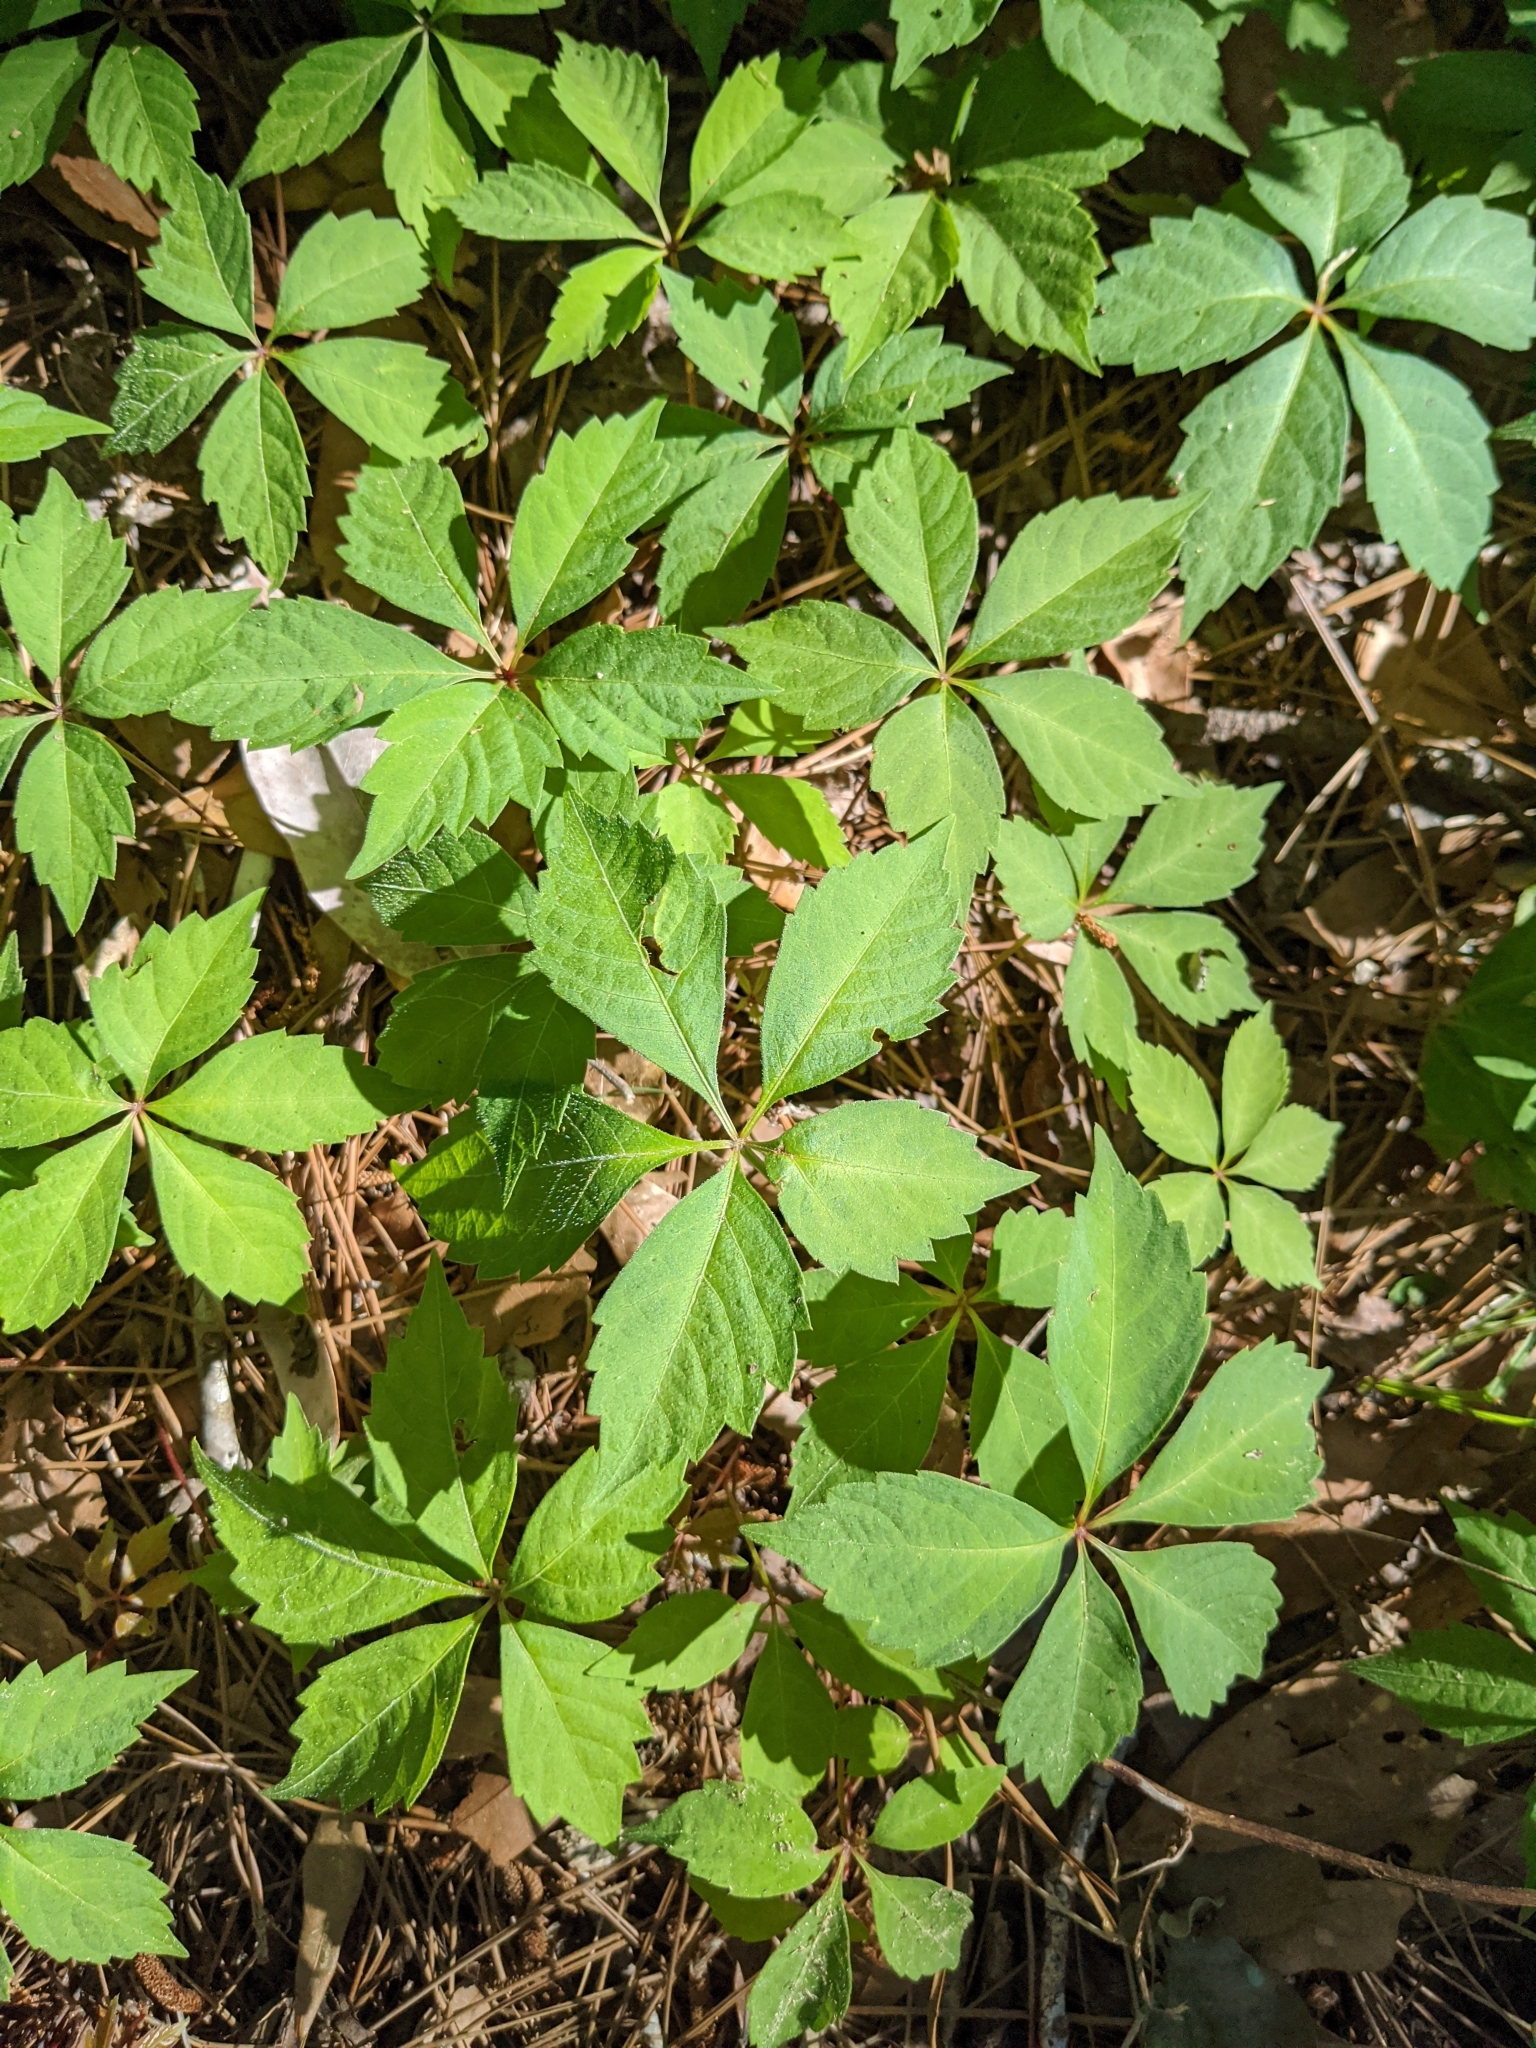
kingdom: Plantae
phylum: Tracheophyta
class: Magnoliopsida
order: Vitales
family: Vitaceae
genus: Parthenocissus
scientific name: Parthenocissus quinquefolia
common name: Virginia-creeper
